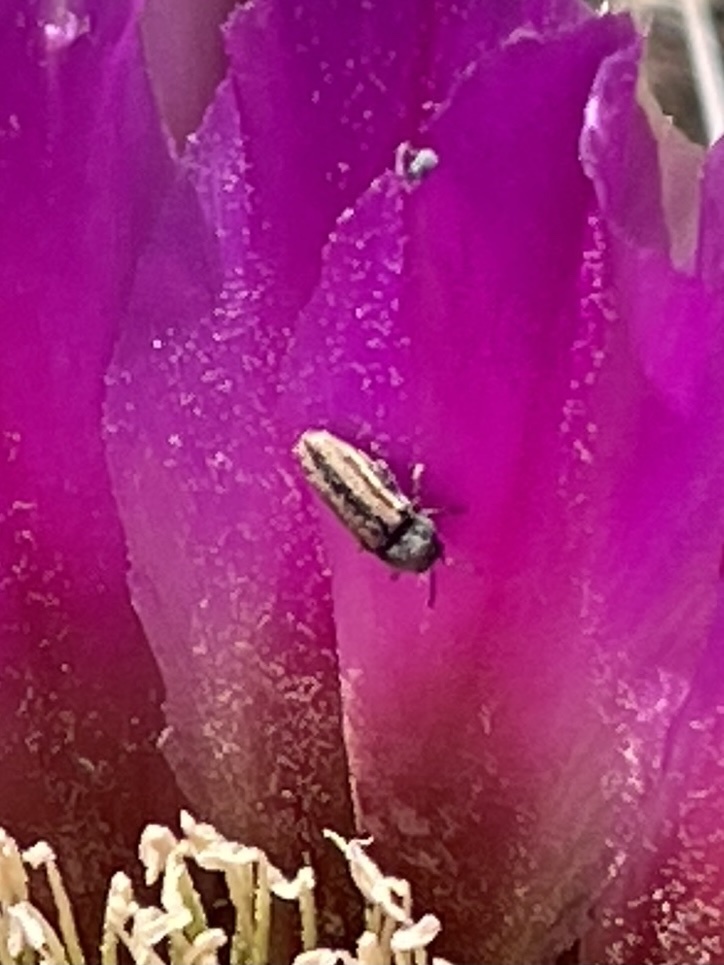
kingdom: Animalia
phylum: Arthropoda
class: Insecta
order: Coleoptera
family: Buprestidae
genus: Acmaeodera
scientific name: Acmaeodera quadrivittatoides
